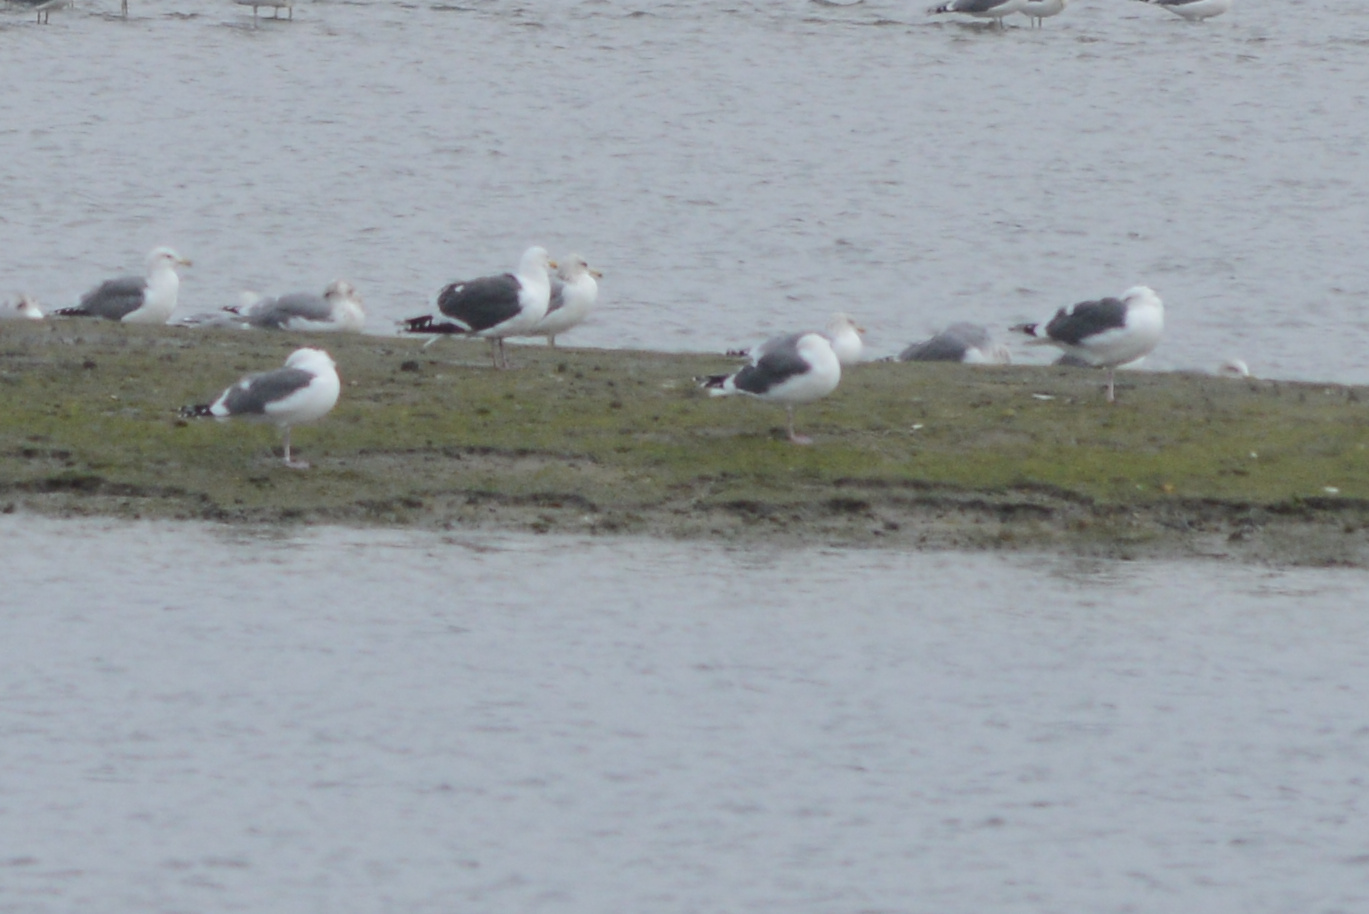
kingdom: Animalia
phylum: Chordata
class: Aves
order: Charadriiformes
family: Laridae
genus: Larus
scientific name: Larus occidentalis
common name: Western gull
